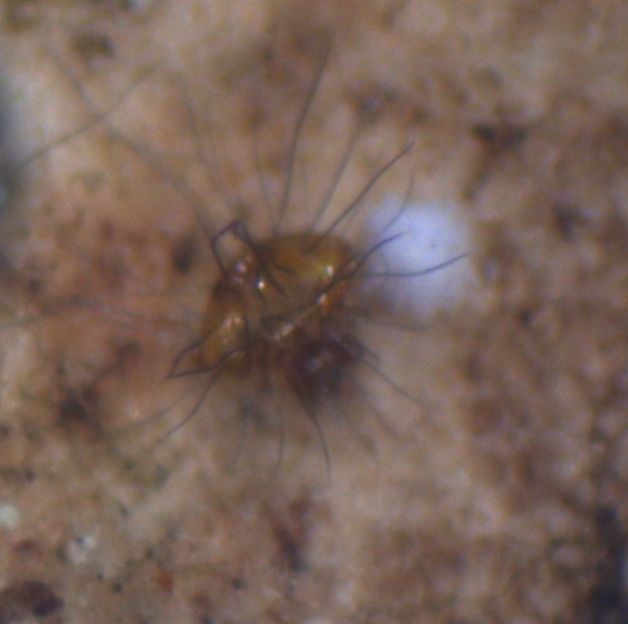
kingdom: Animalia
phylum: Arthropoda
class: Arachnida
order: Sarcoptiformes
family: Caloppiidae
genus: Neotrichozetes
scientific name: Neotrichozetes spinulosus
